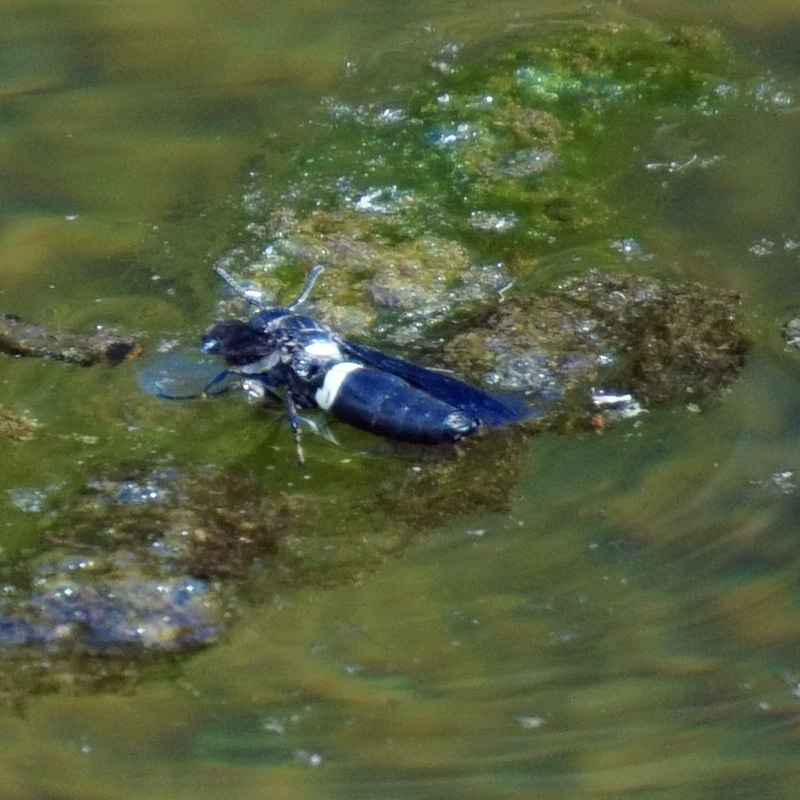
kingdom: Animalia
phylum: Arthropoda
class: Insecta
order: Hymenoptera
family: Eumenidae
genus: Monobia
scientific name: Monobia quadridens
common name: Four-toothed mason wasp
